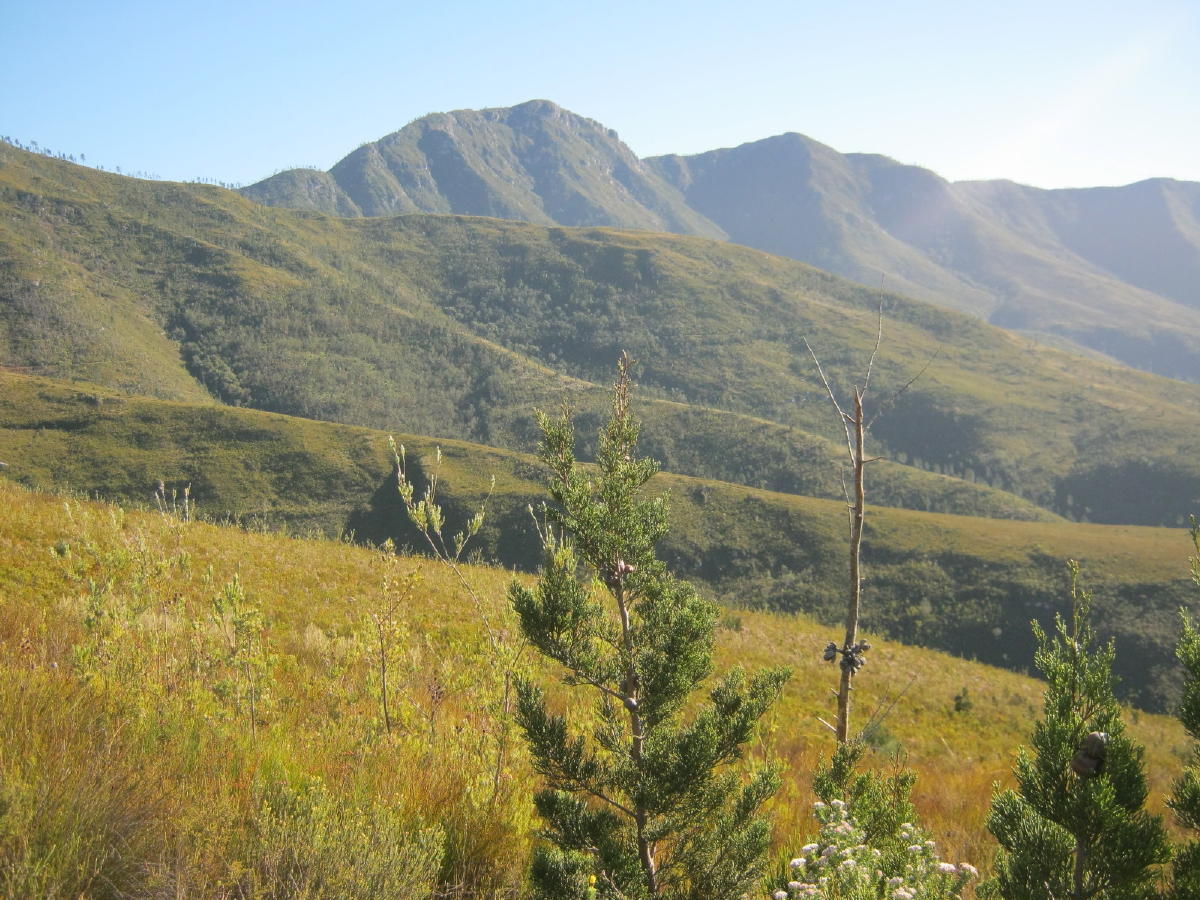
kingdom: Plantae
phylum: Tracheophyta
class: Pinopsida
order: Pinales
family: Cupressaceae
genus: Widdringtonia
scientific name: Widdringtonia nodiflora
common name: Cape cypress
